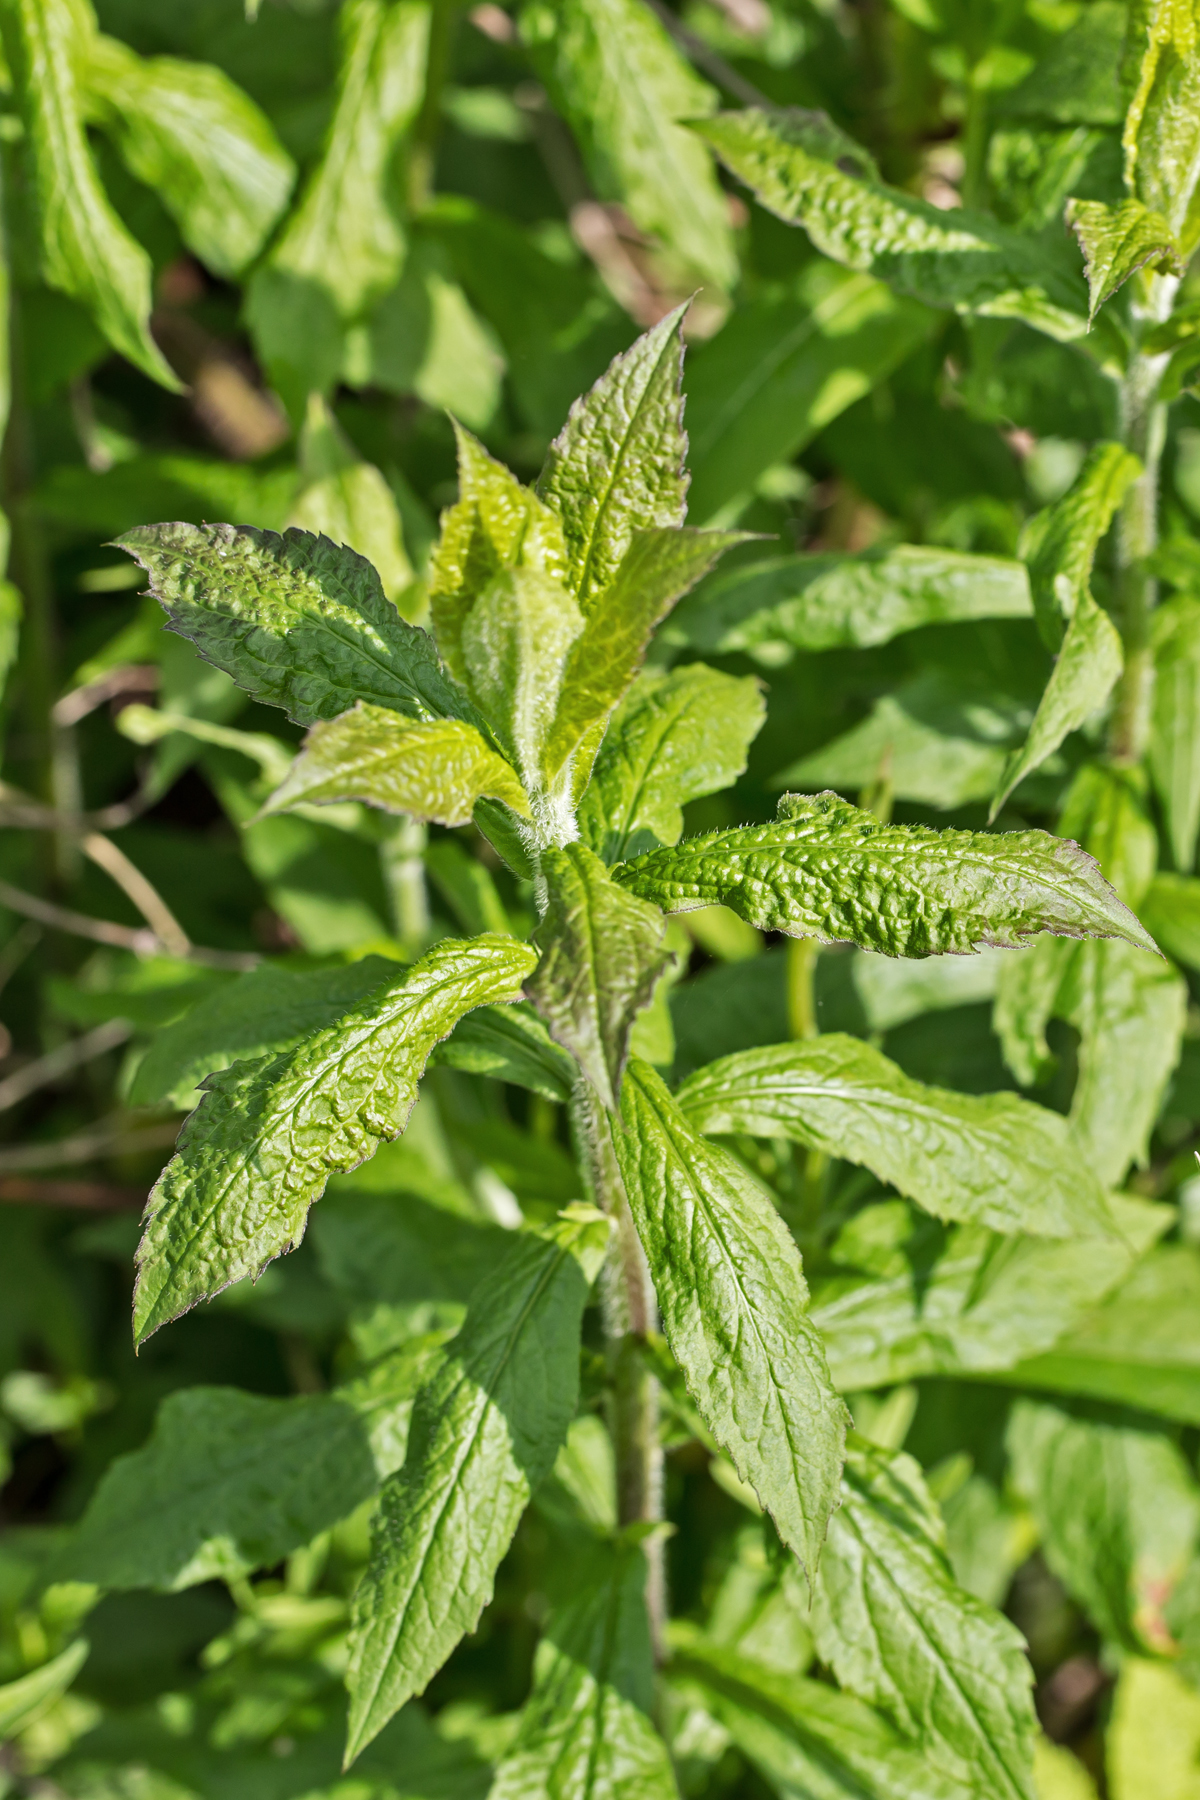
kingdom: Plantae
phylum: Tracheophyta
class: Magnoliopsida
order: Asterales
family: Asteraceae
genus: Solidago
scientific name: Solidago rugosa
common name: Rough-stemmed goldenrod
